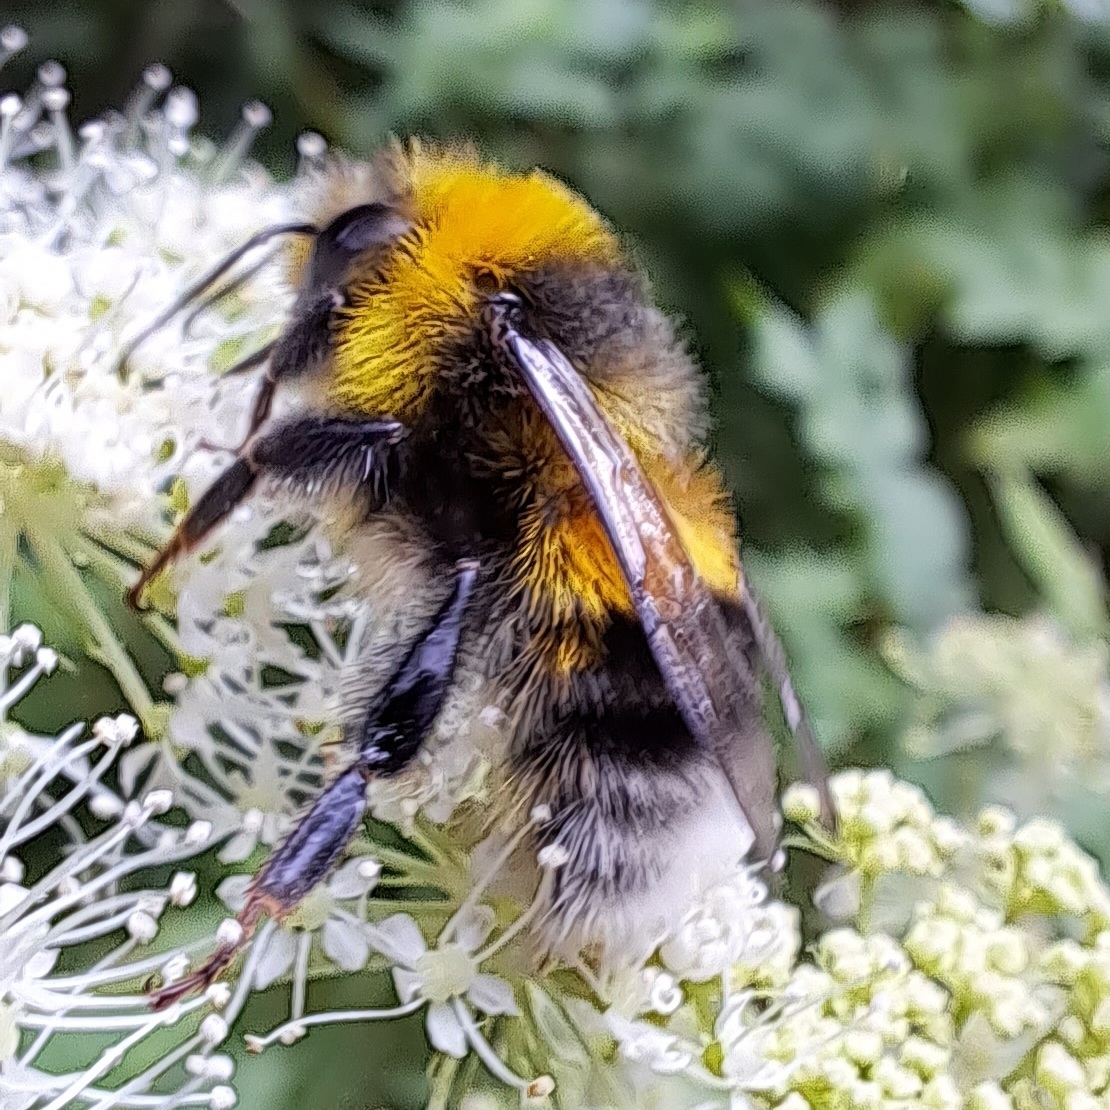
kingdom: Animalia
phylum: Arthropoda
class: Insecta
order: Hymenoptera
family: Apidae
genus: Bombus
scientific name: Bombus lucorum
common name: White-tailed bumblebee
